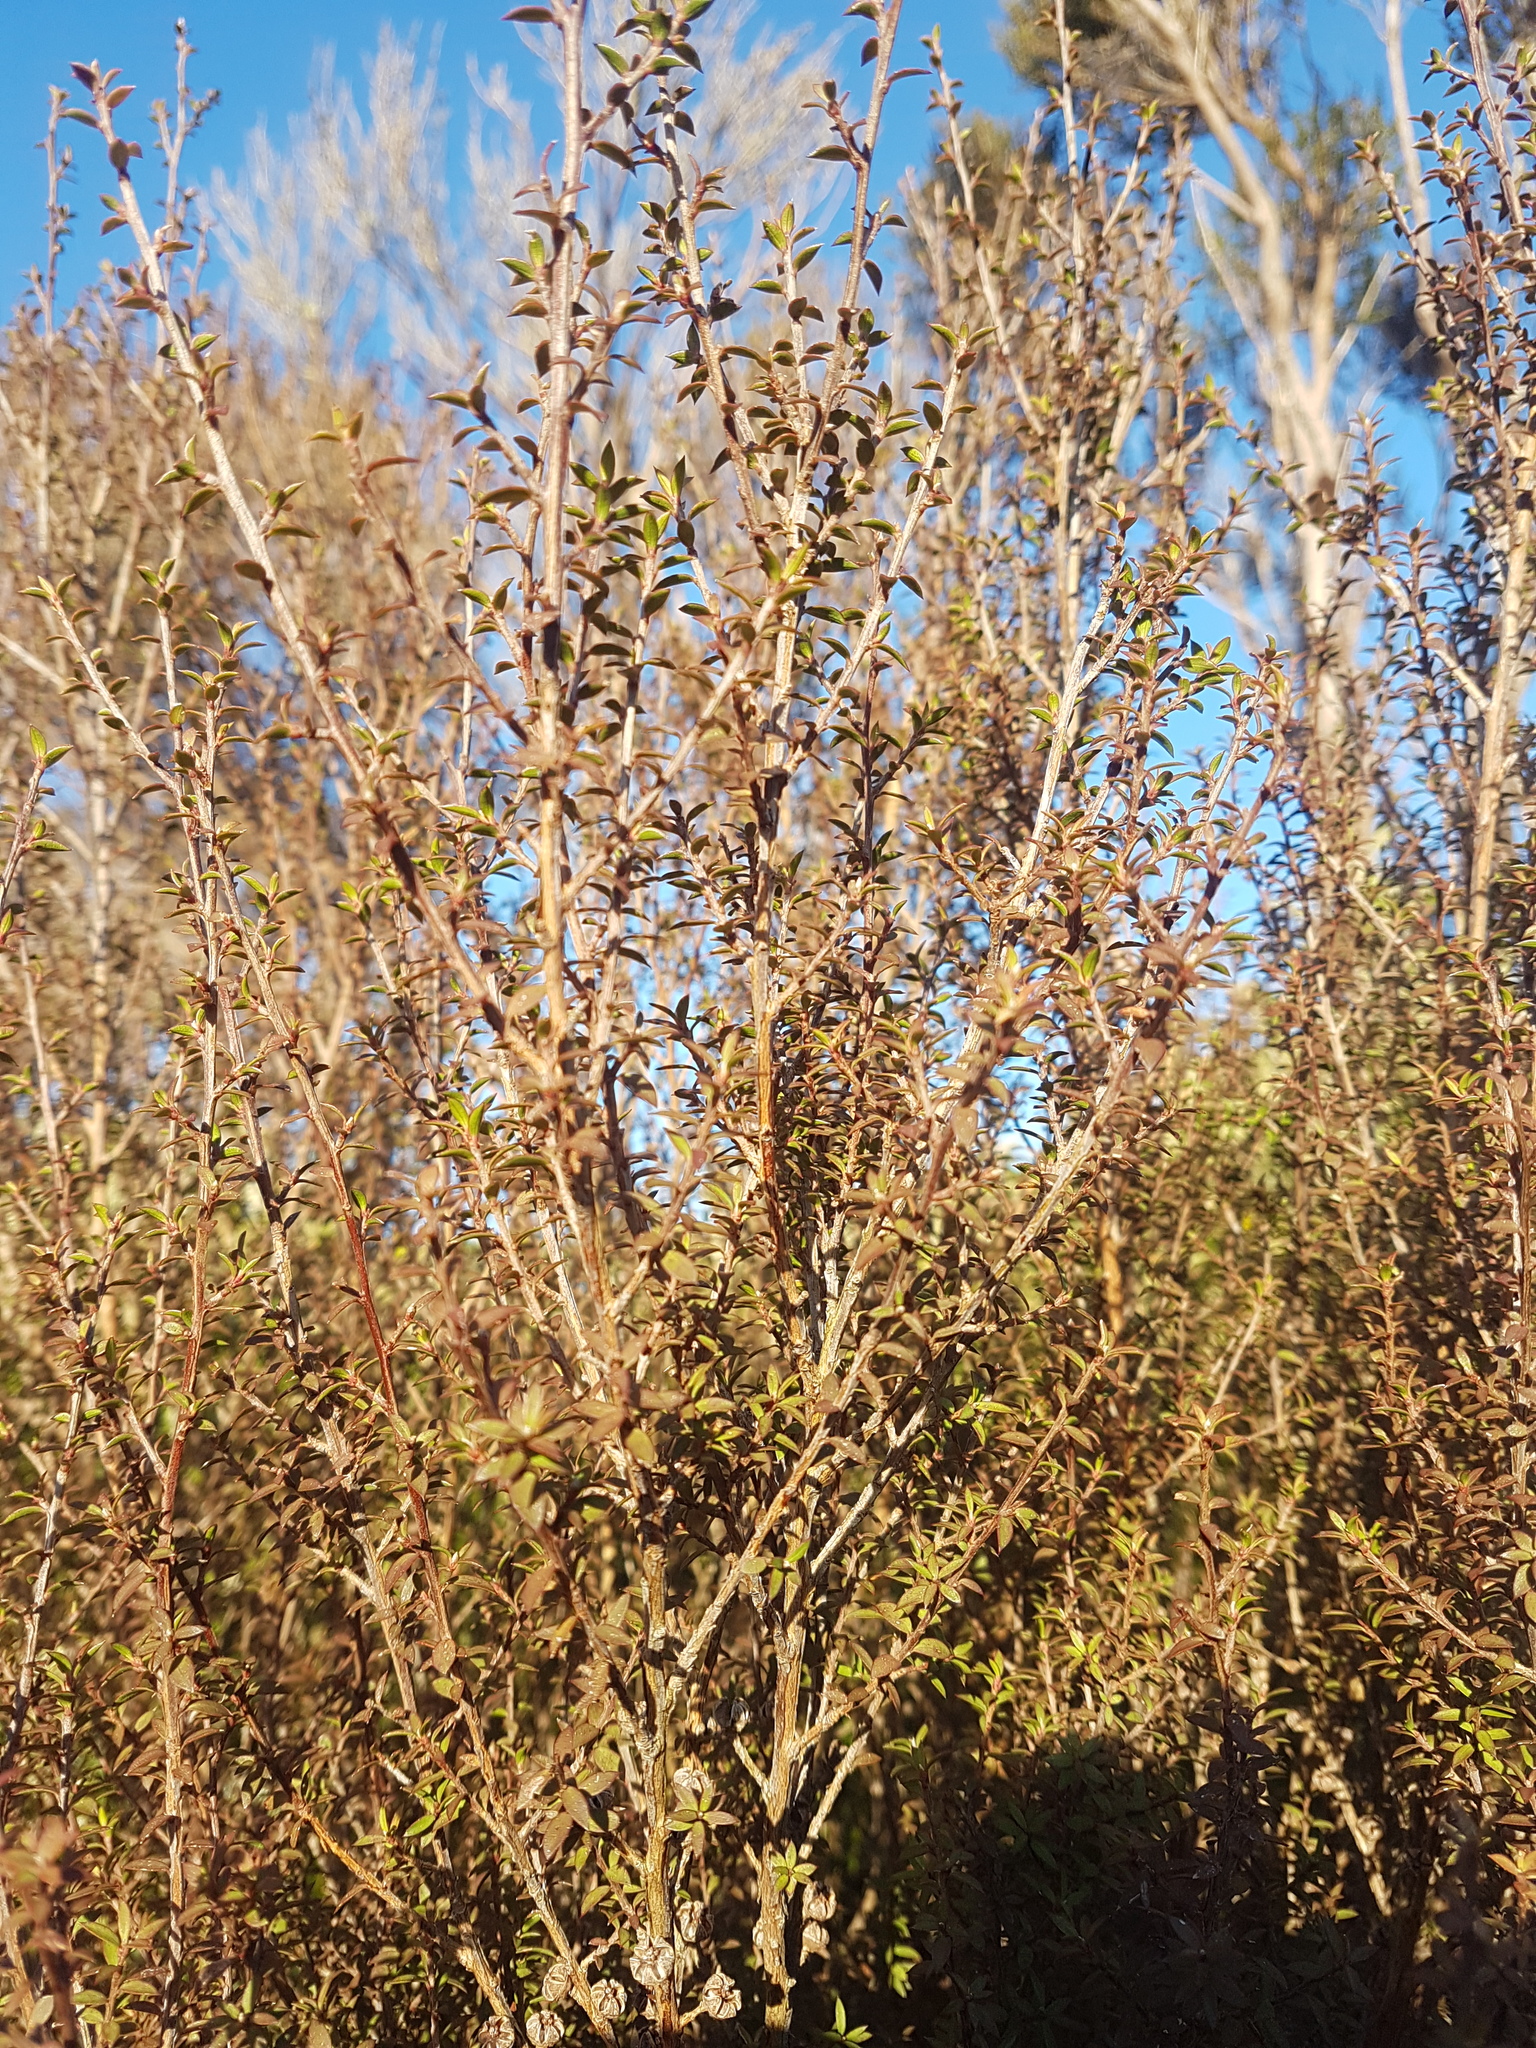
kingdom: Plantae
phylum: Tracheophyta
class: Magnoliopsida
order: Myrtales
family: Myrtaceae
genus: Leptospermum
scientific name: Leptospermum scoparium
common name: Broom tea-tree
